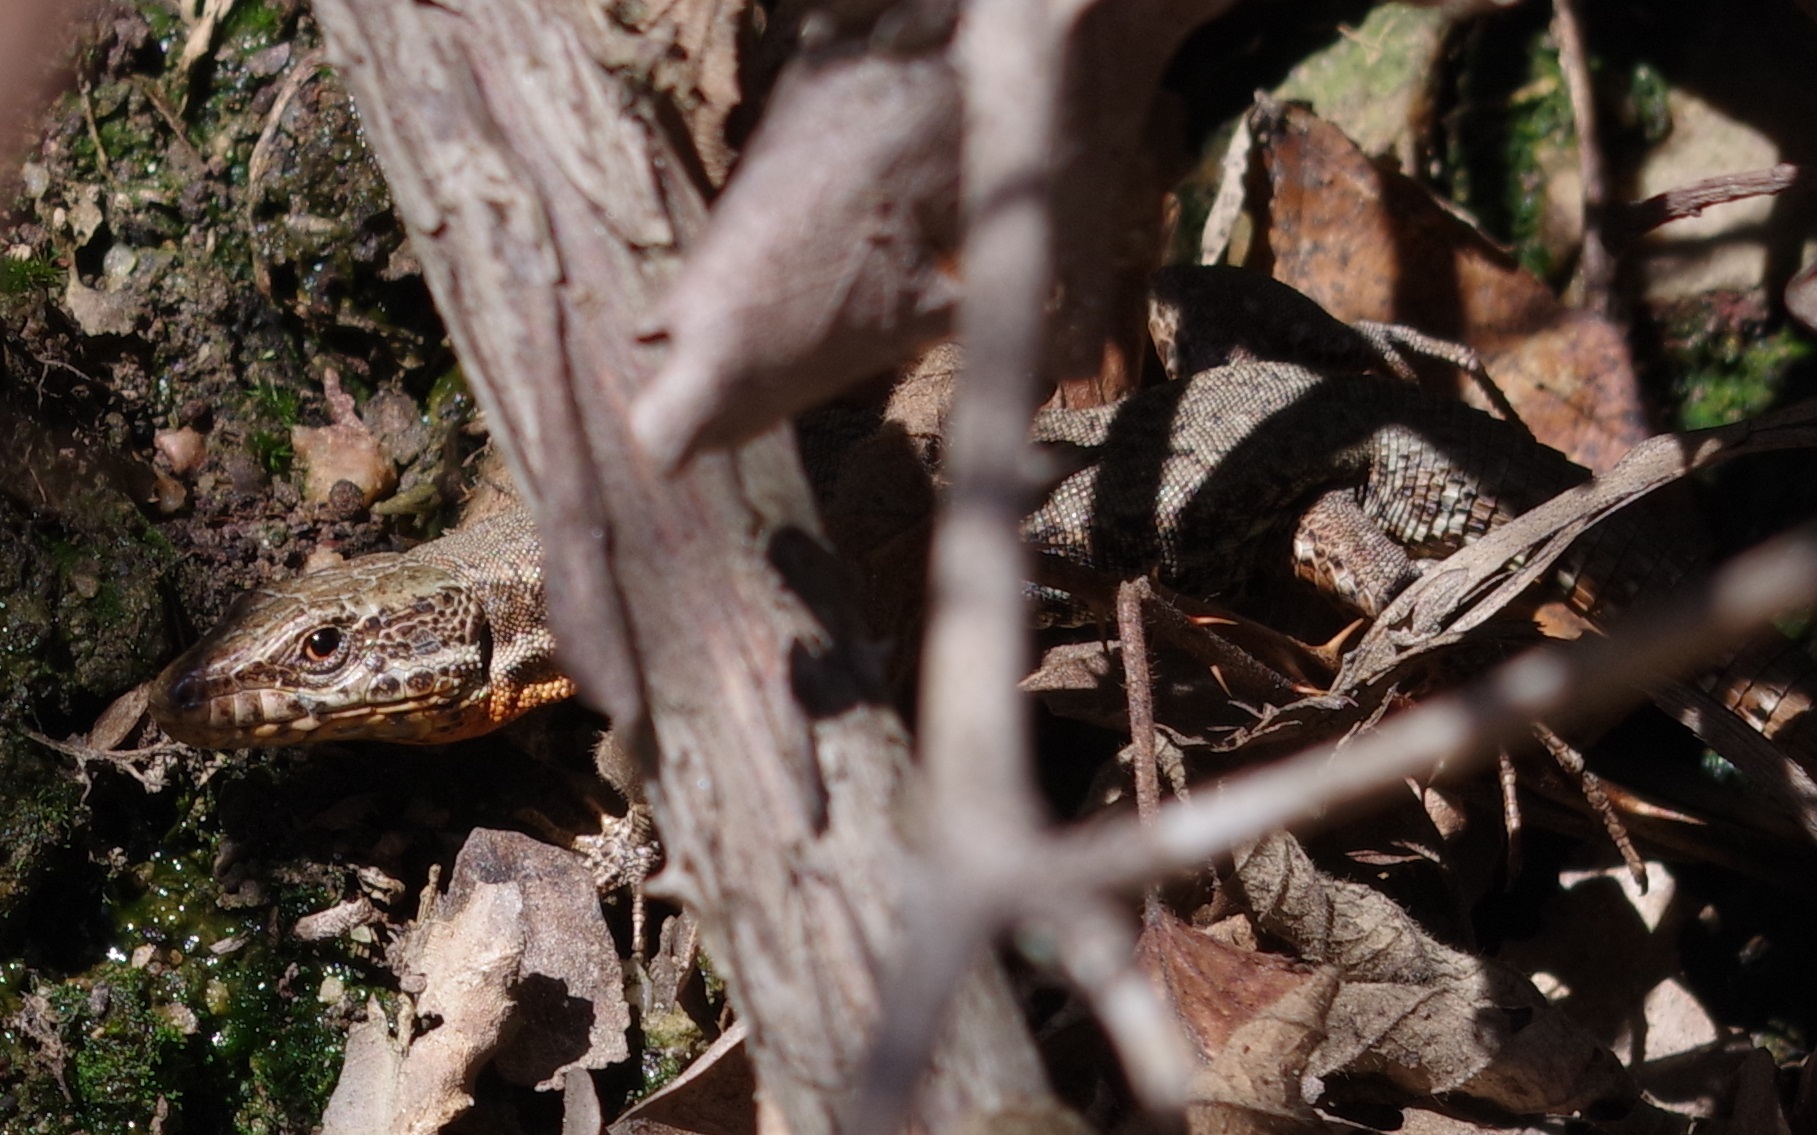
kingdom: Animalia
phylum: Chordata
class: Squamata
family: Lacertidae
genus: Podarcis
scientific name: Podarcis muralis
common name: Common wall lizard
